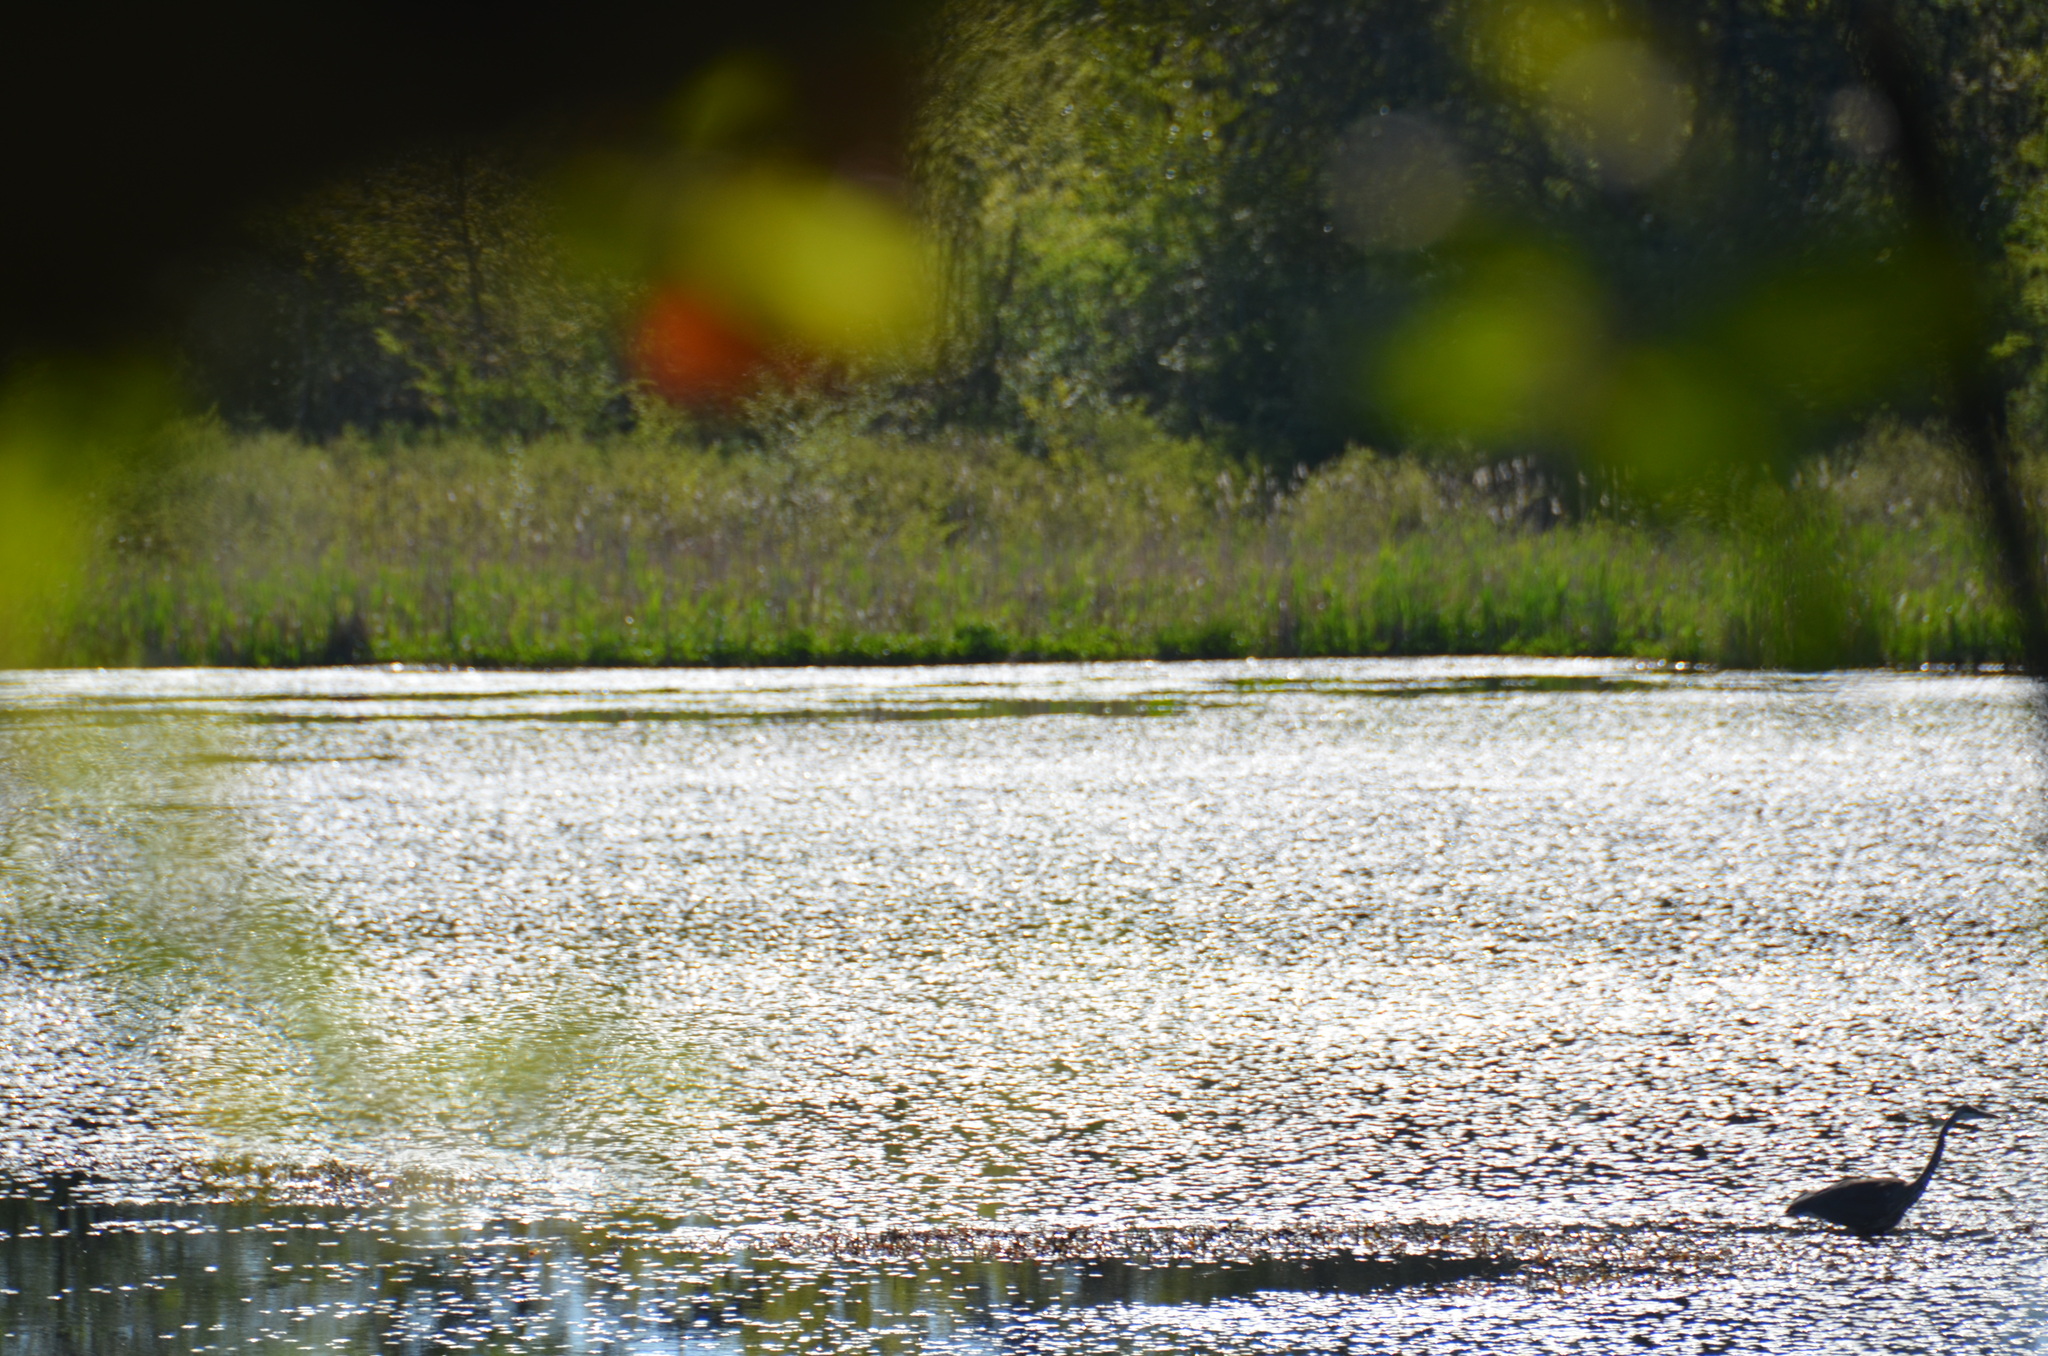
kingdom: Animalia
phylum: Chordata
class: Aves
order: Pelecaniformes
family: Ardeidae
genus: Ardea
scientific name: Ardea herodias
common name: Great blue heron
